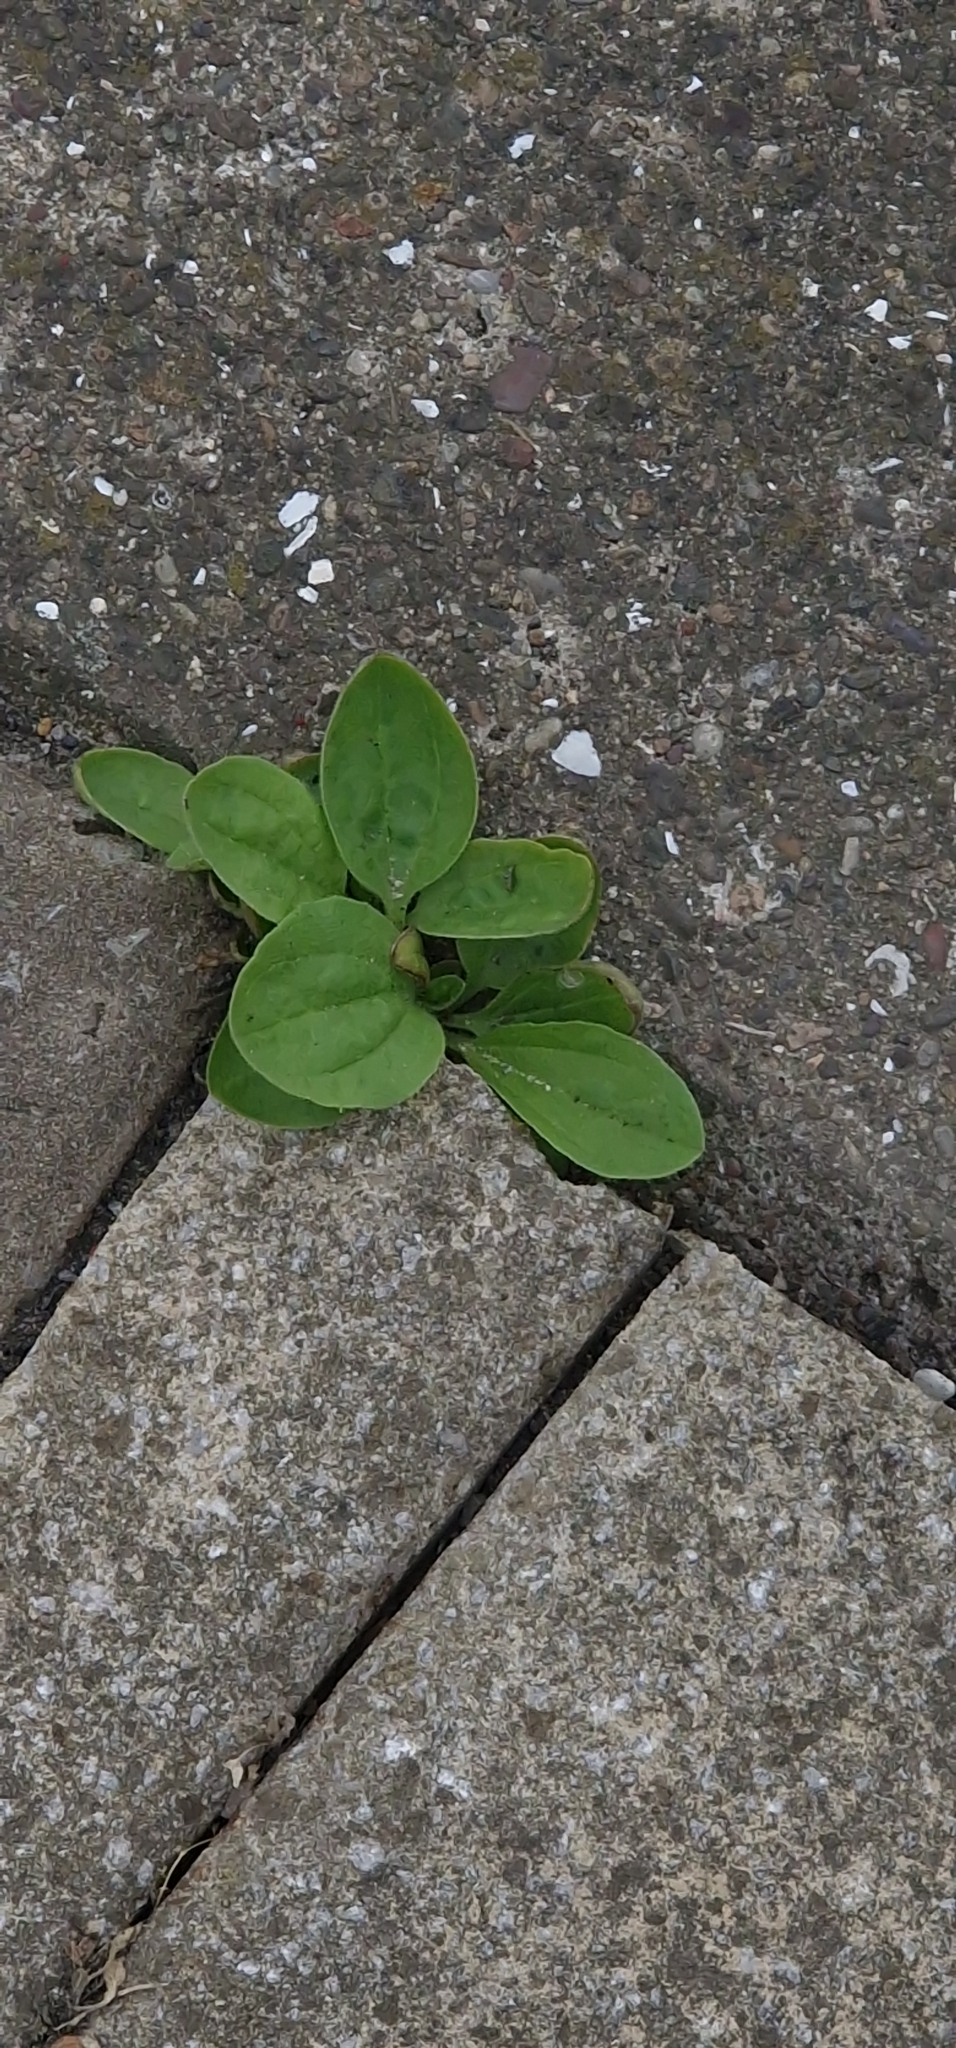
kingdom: Plantae
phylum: Tracheophyta
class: Magnoliopsida
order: Lamiales
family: Plantaginaceae
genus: Plantago
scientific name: Plantago major
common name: Common plantain
